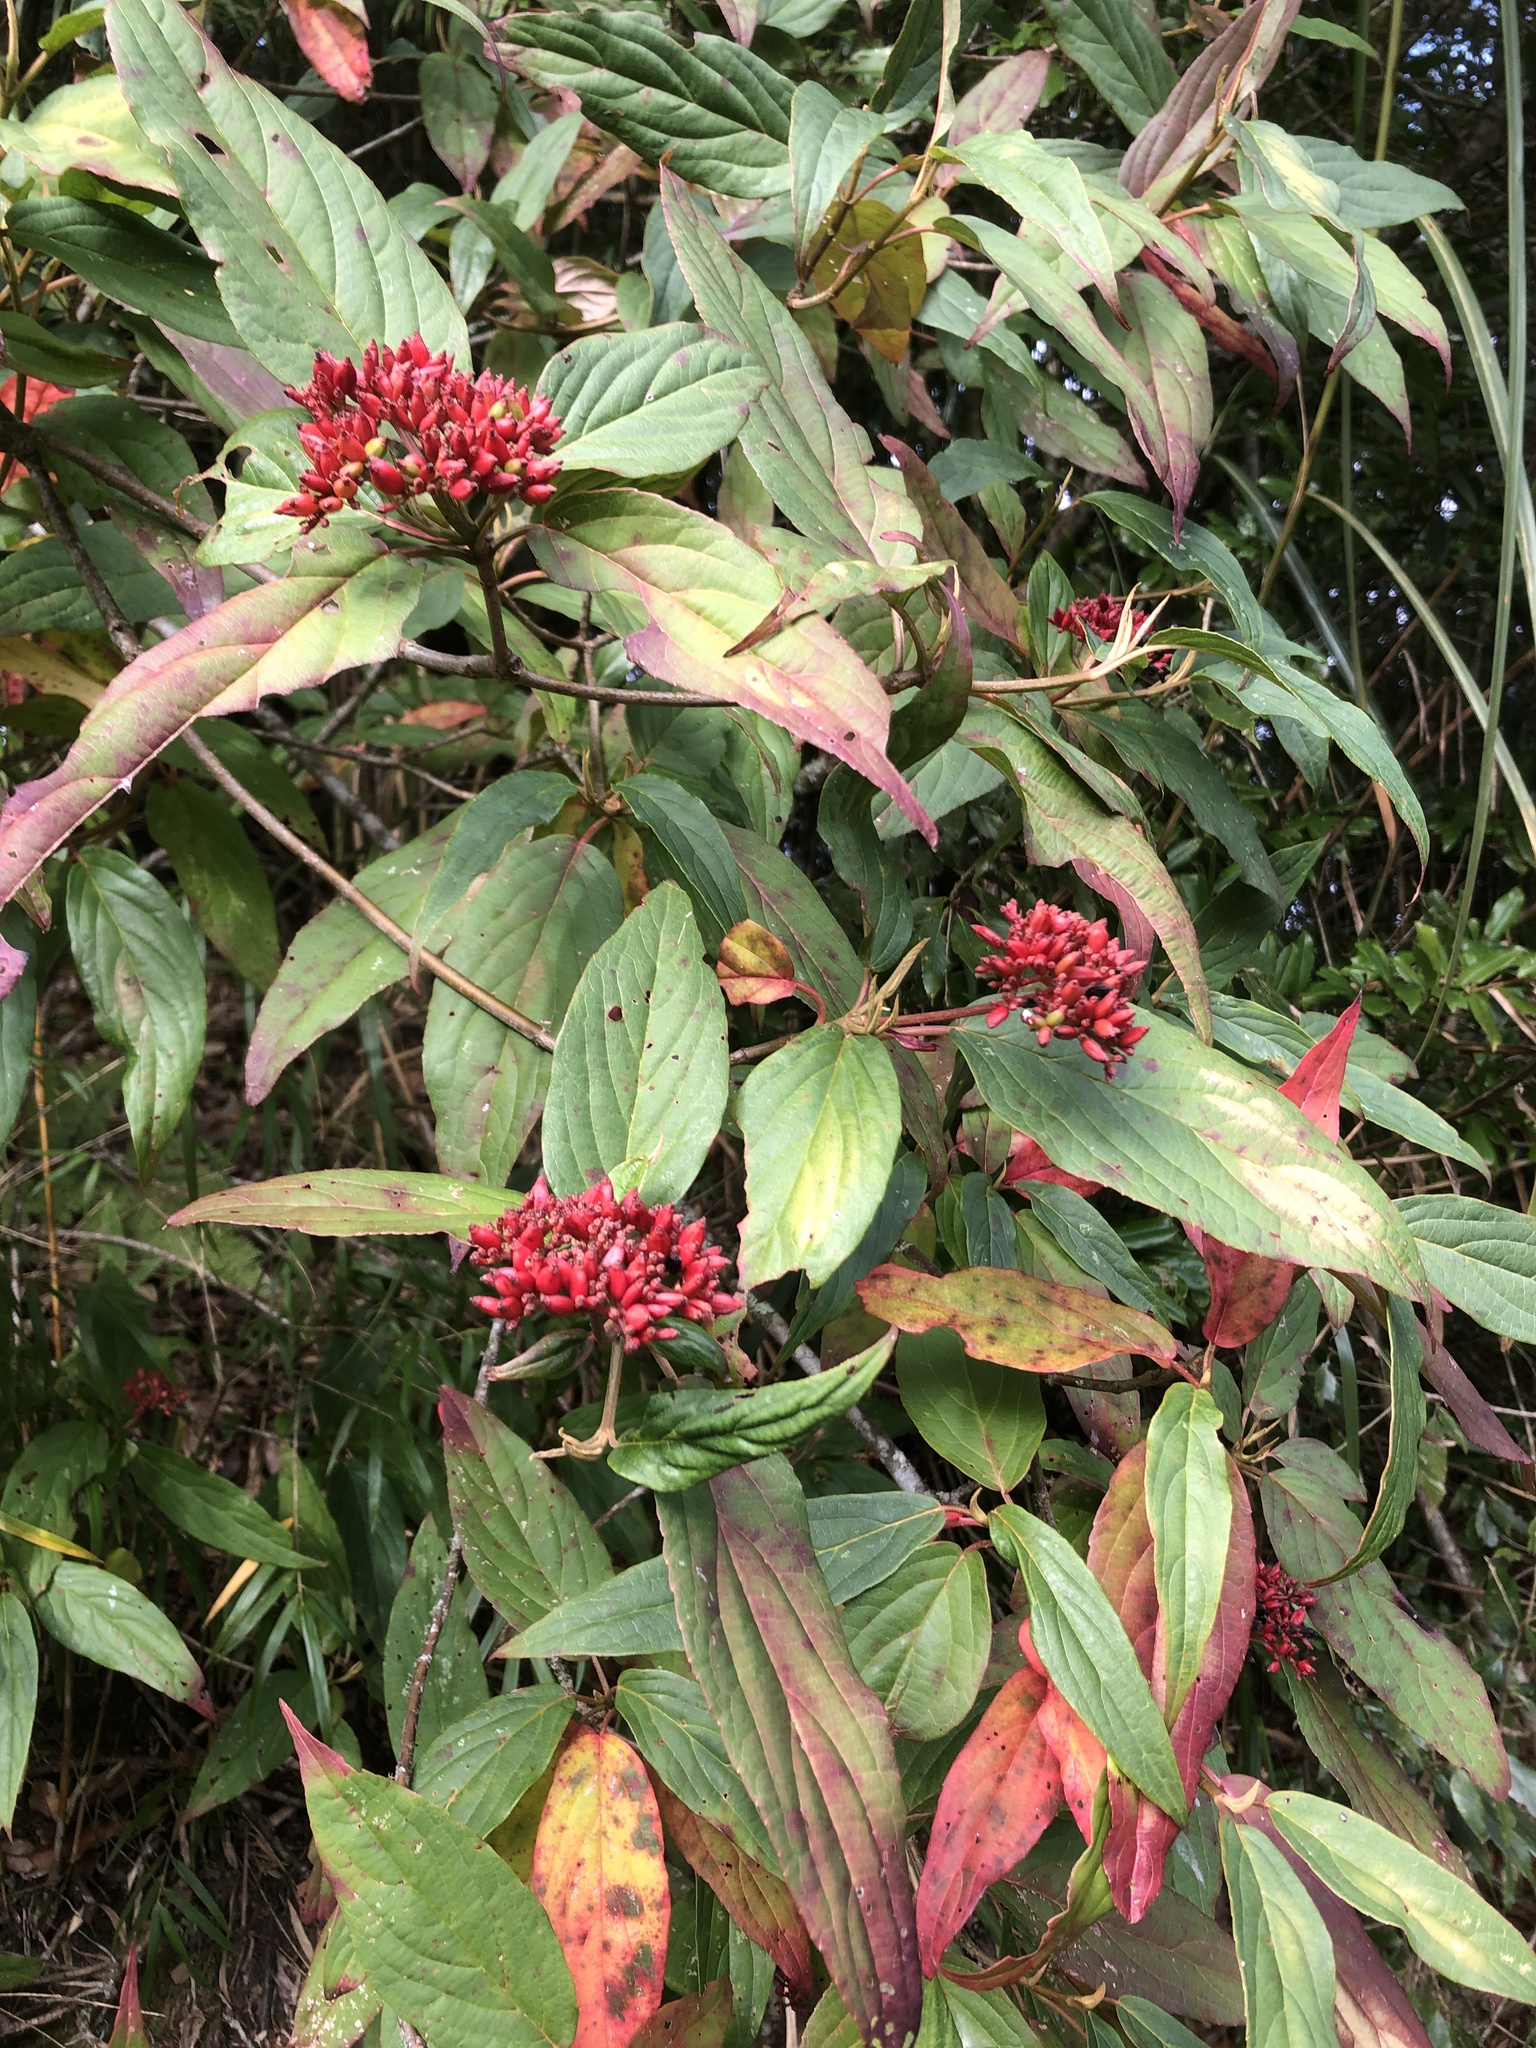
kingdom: Plantae
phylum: Tracheophyta
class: Magnoliopsida
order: Dipsacales
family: Viburnaceae
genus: Viburnum
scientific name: Viburnum urceolatum
